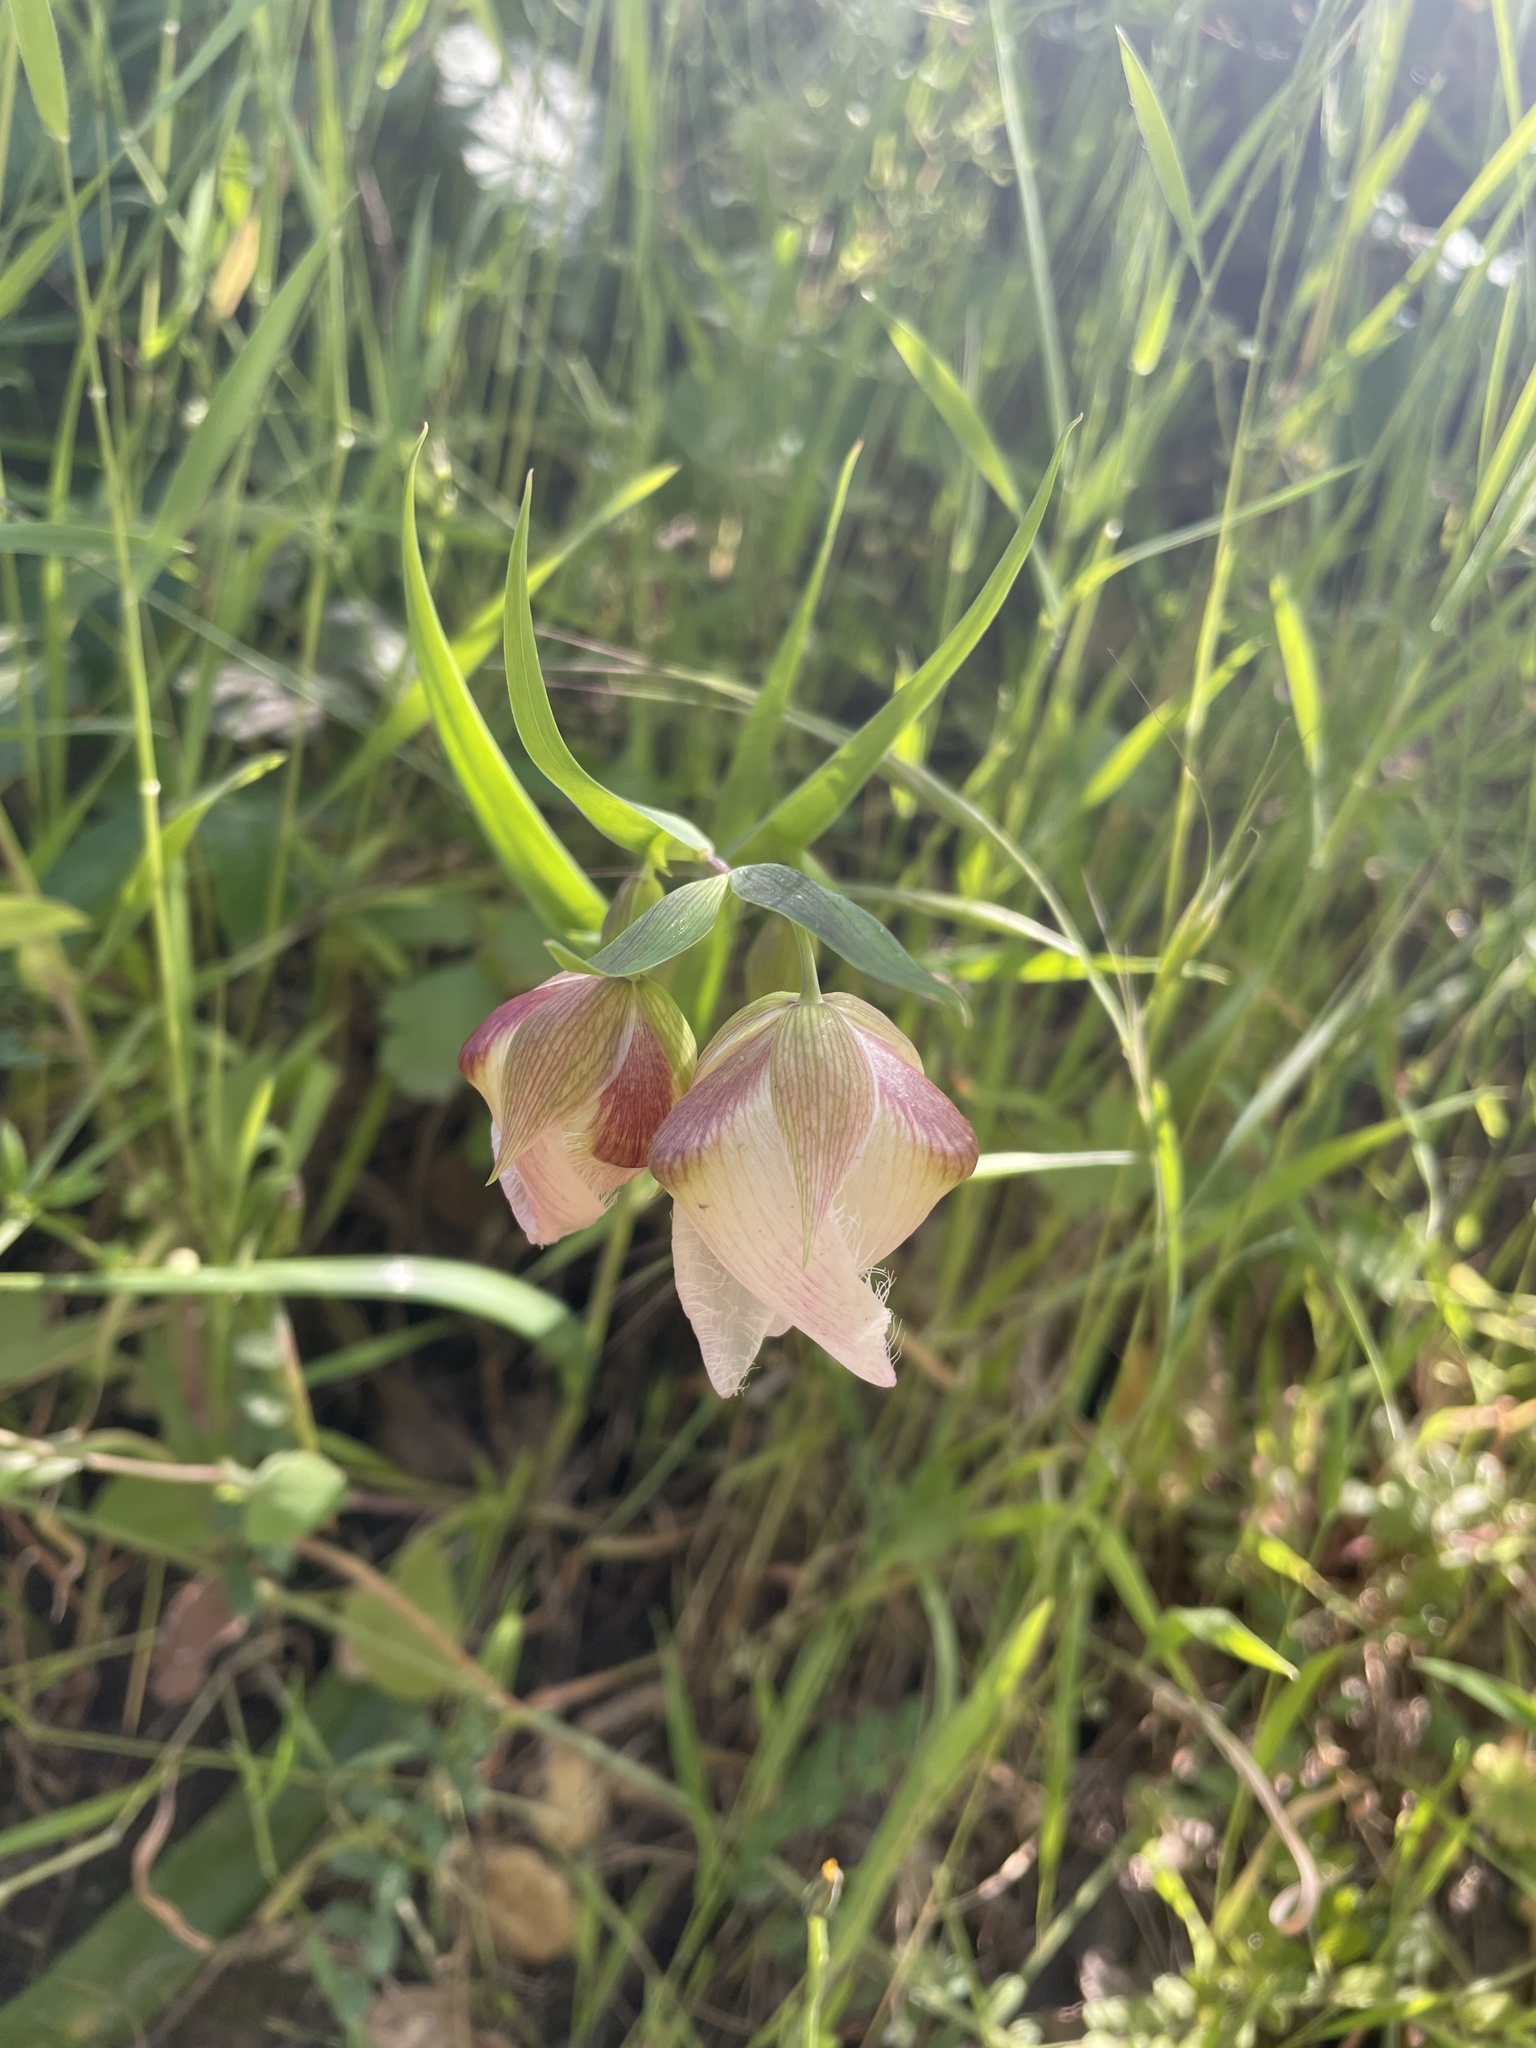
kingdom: Plantae
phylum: Tracheophyta
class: Liliopsida
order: Liliales
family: Liliaceae
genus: Calochortus
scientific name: Calochortus albus
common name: Fairy-lantern
